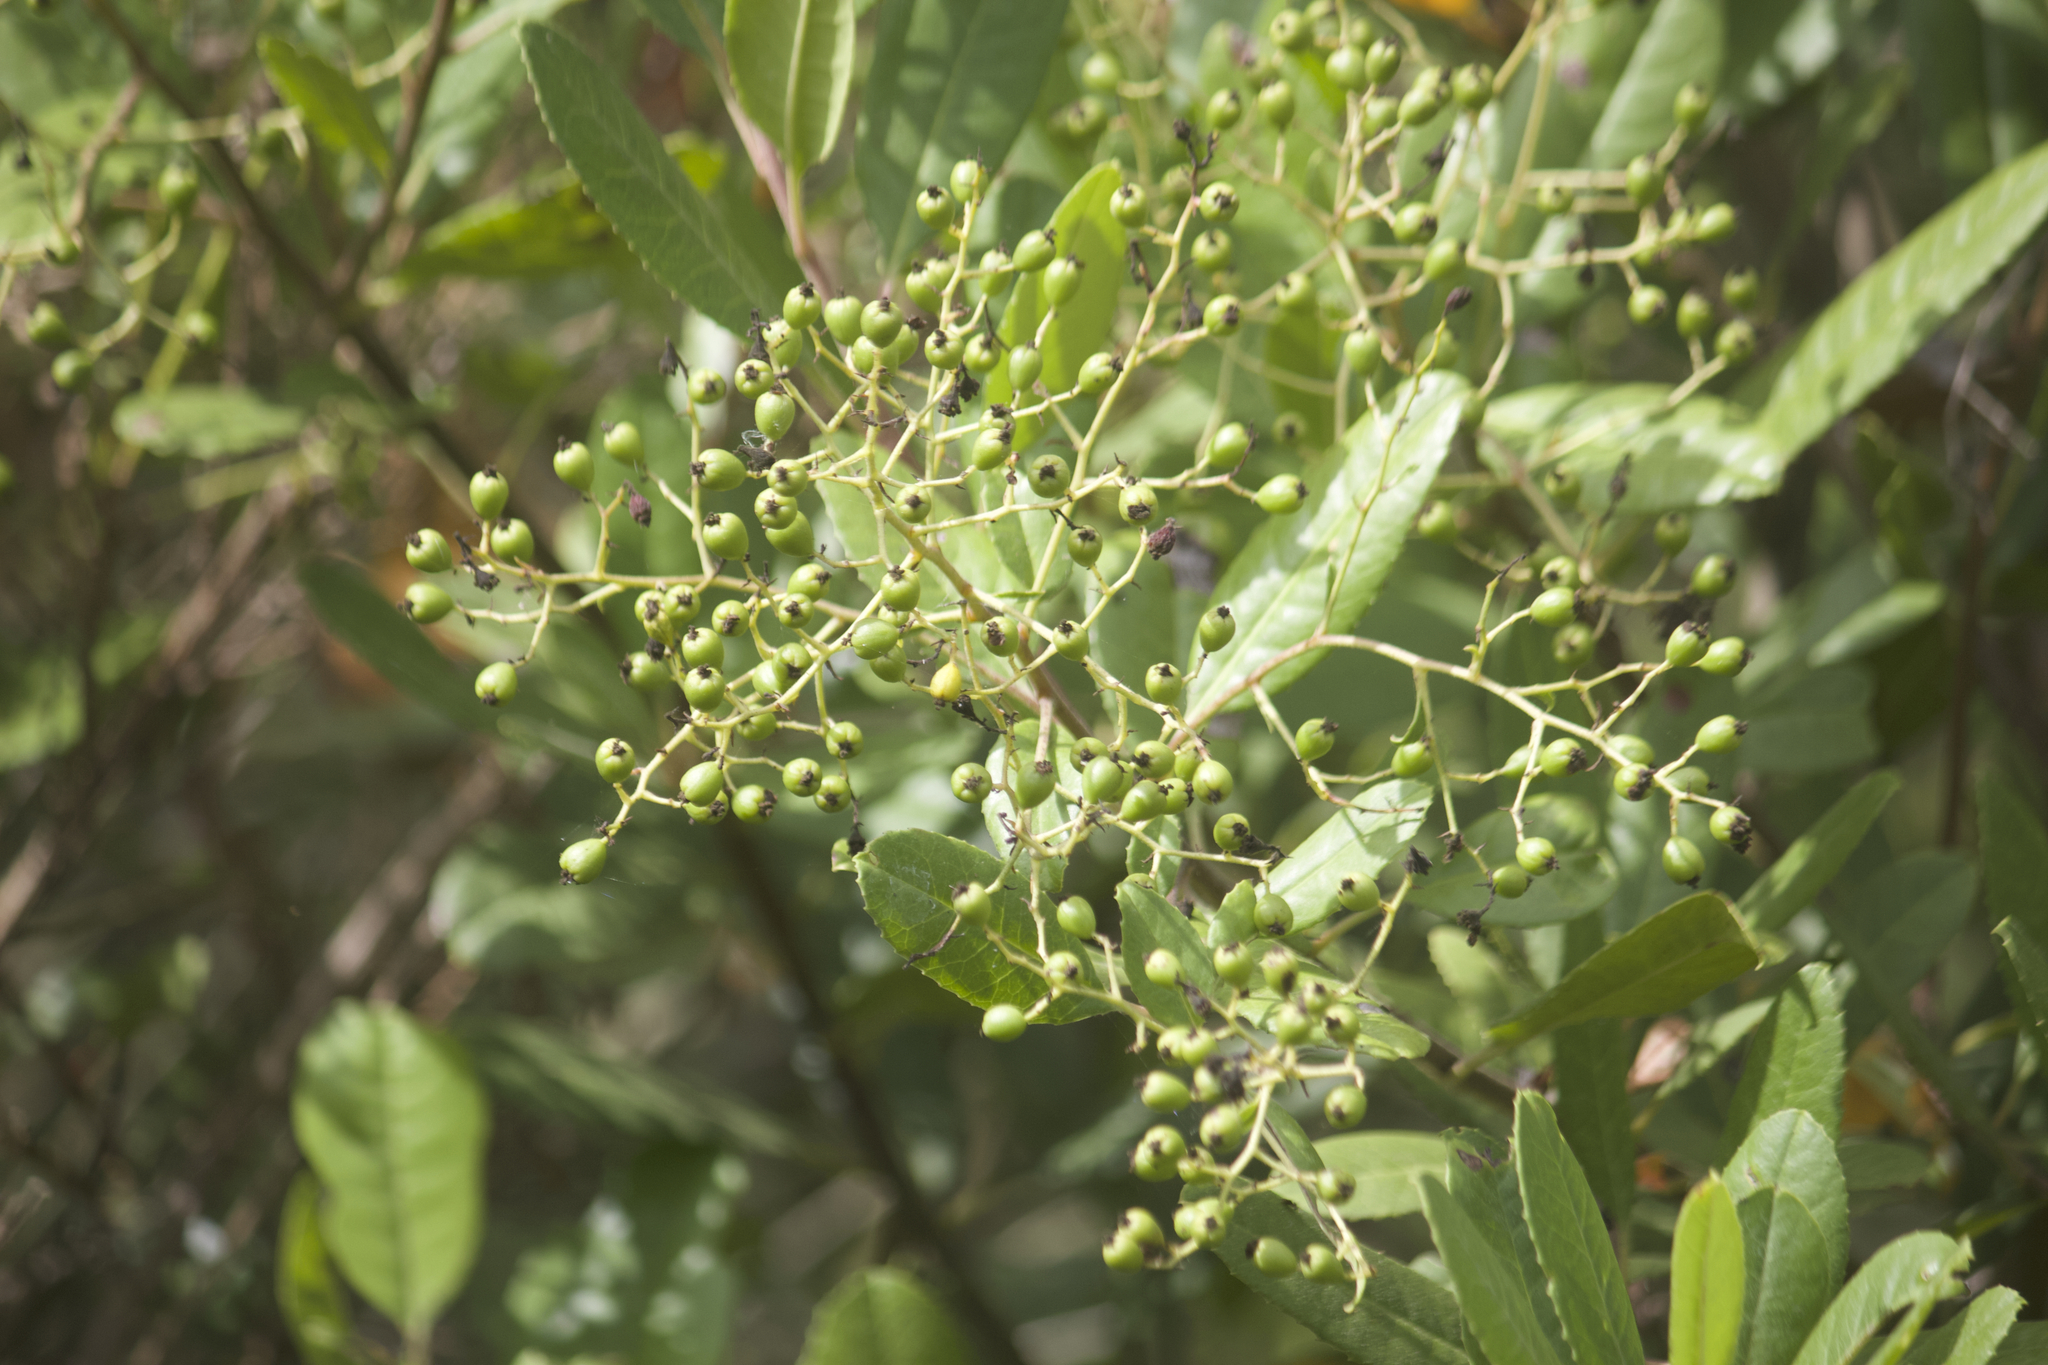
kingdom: Plantae
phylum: Tracheophyta
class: Magnoliopsida
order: Rosales
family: Rosaceae
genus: Heteromeles
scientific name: Heteromeles arbutifolia
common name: California-holly
